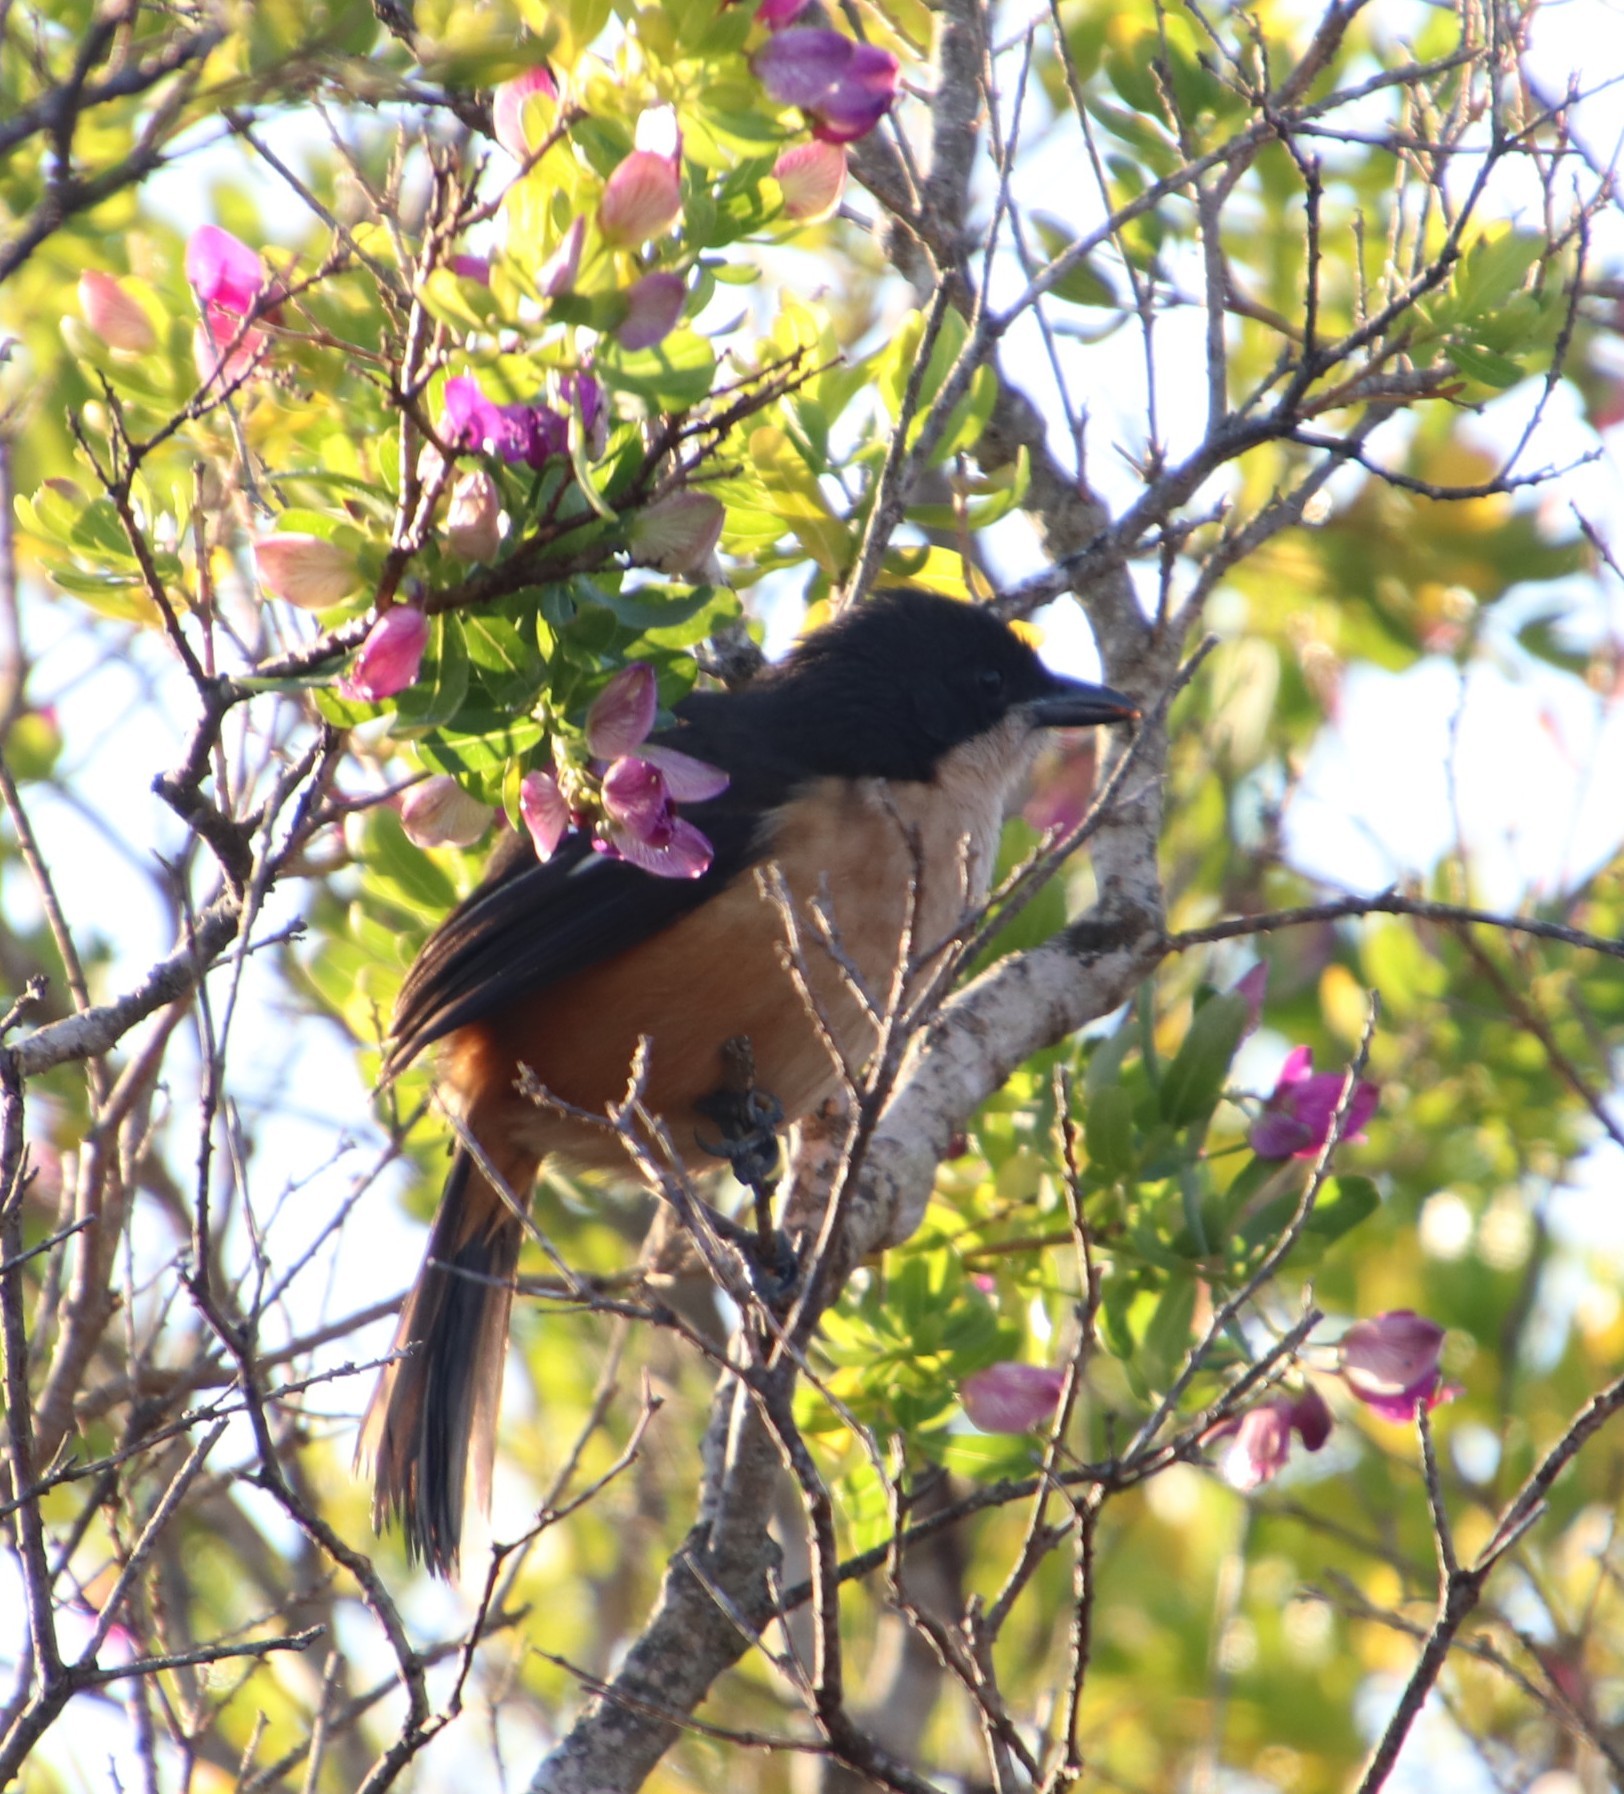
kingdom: Animalia
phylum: Chordata
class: Aves
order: Passeriformes
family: Malaconotidae
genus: Laniarius
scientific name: Laniarius ferrugineus
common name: Southern boubou
